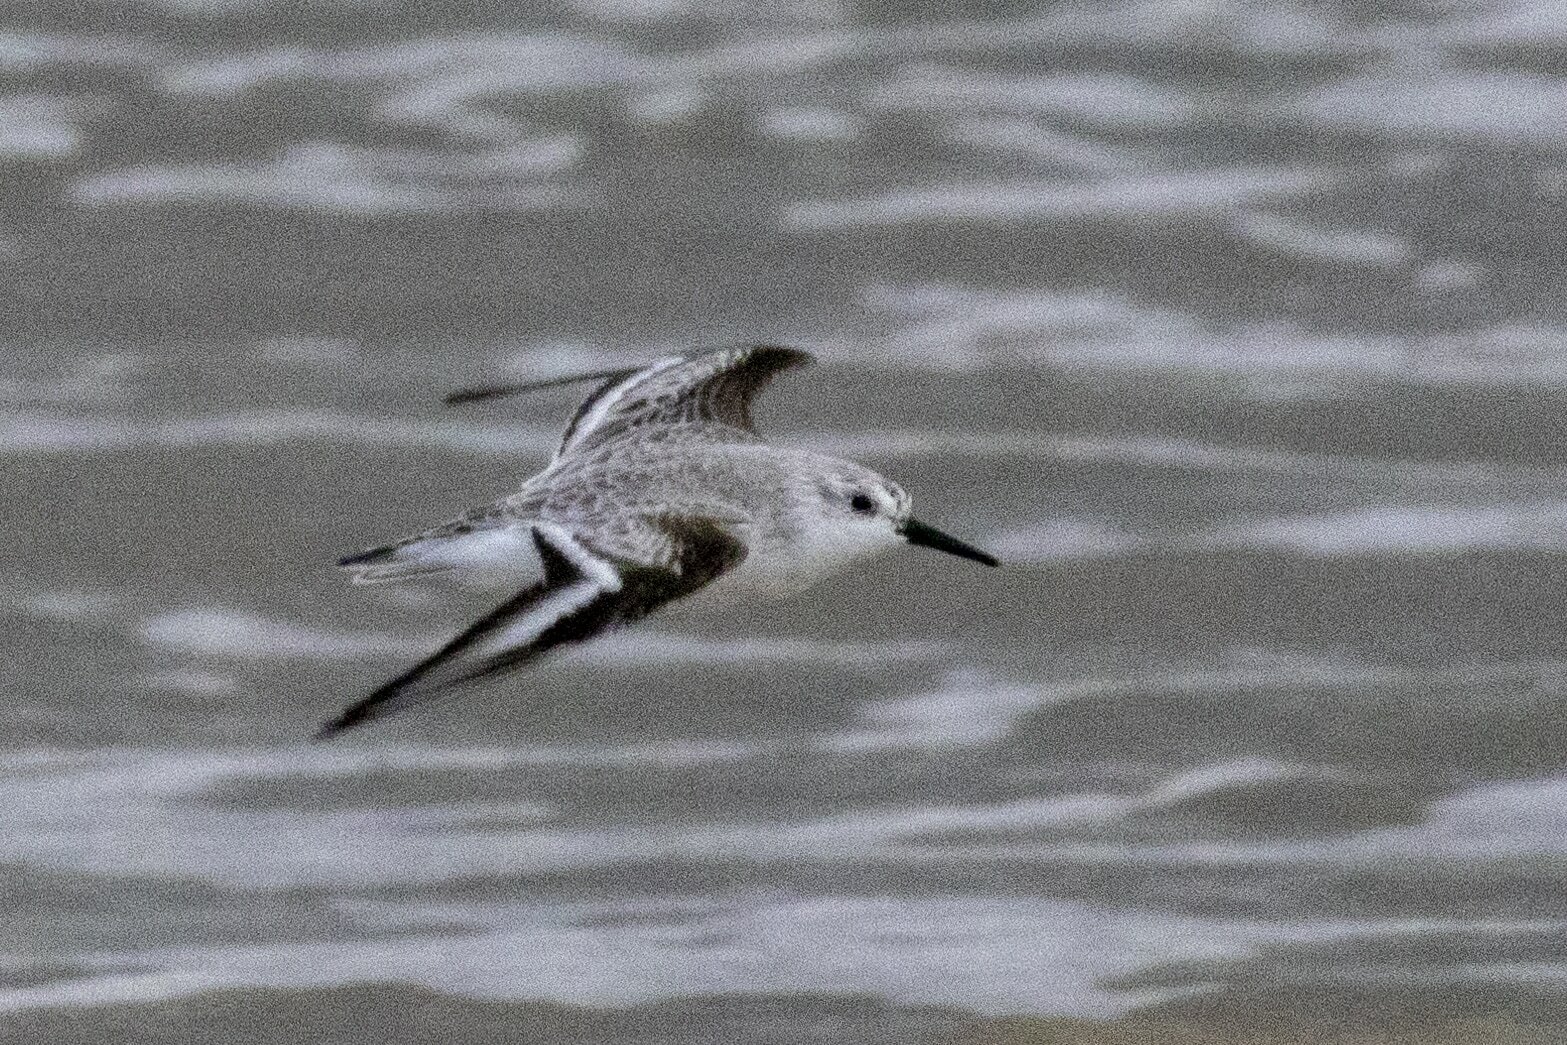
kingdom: Animalia
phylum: Chordata
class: Aves
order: Charadriiformes
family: Scolopacidae
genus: Calidris
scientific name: Calidris alba
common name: Sanderling
